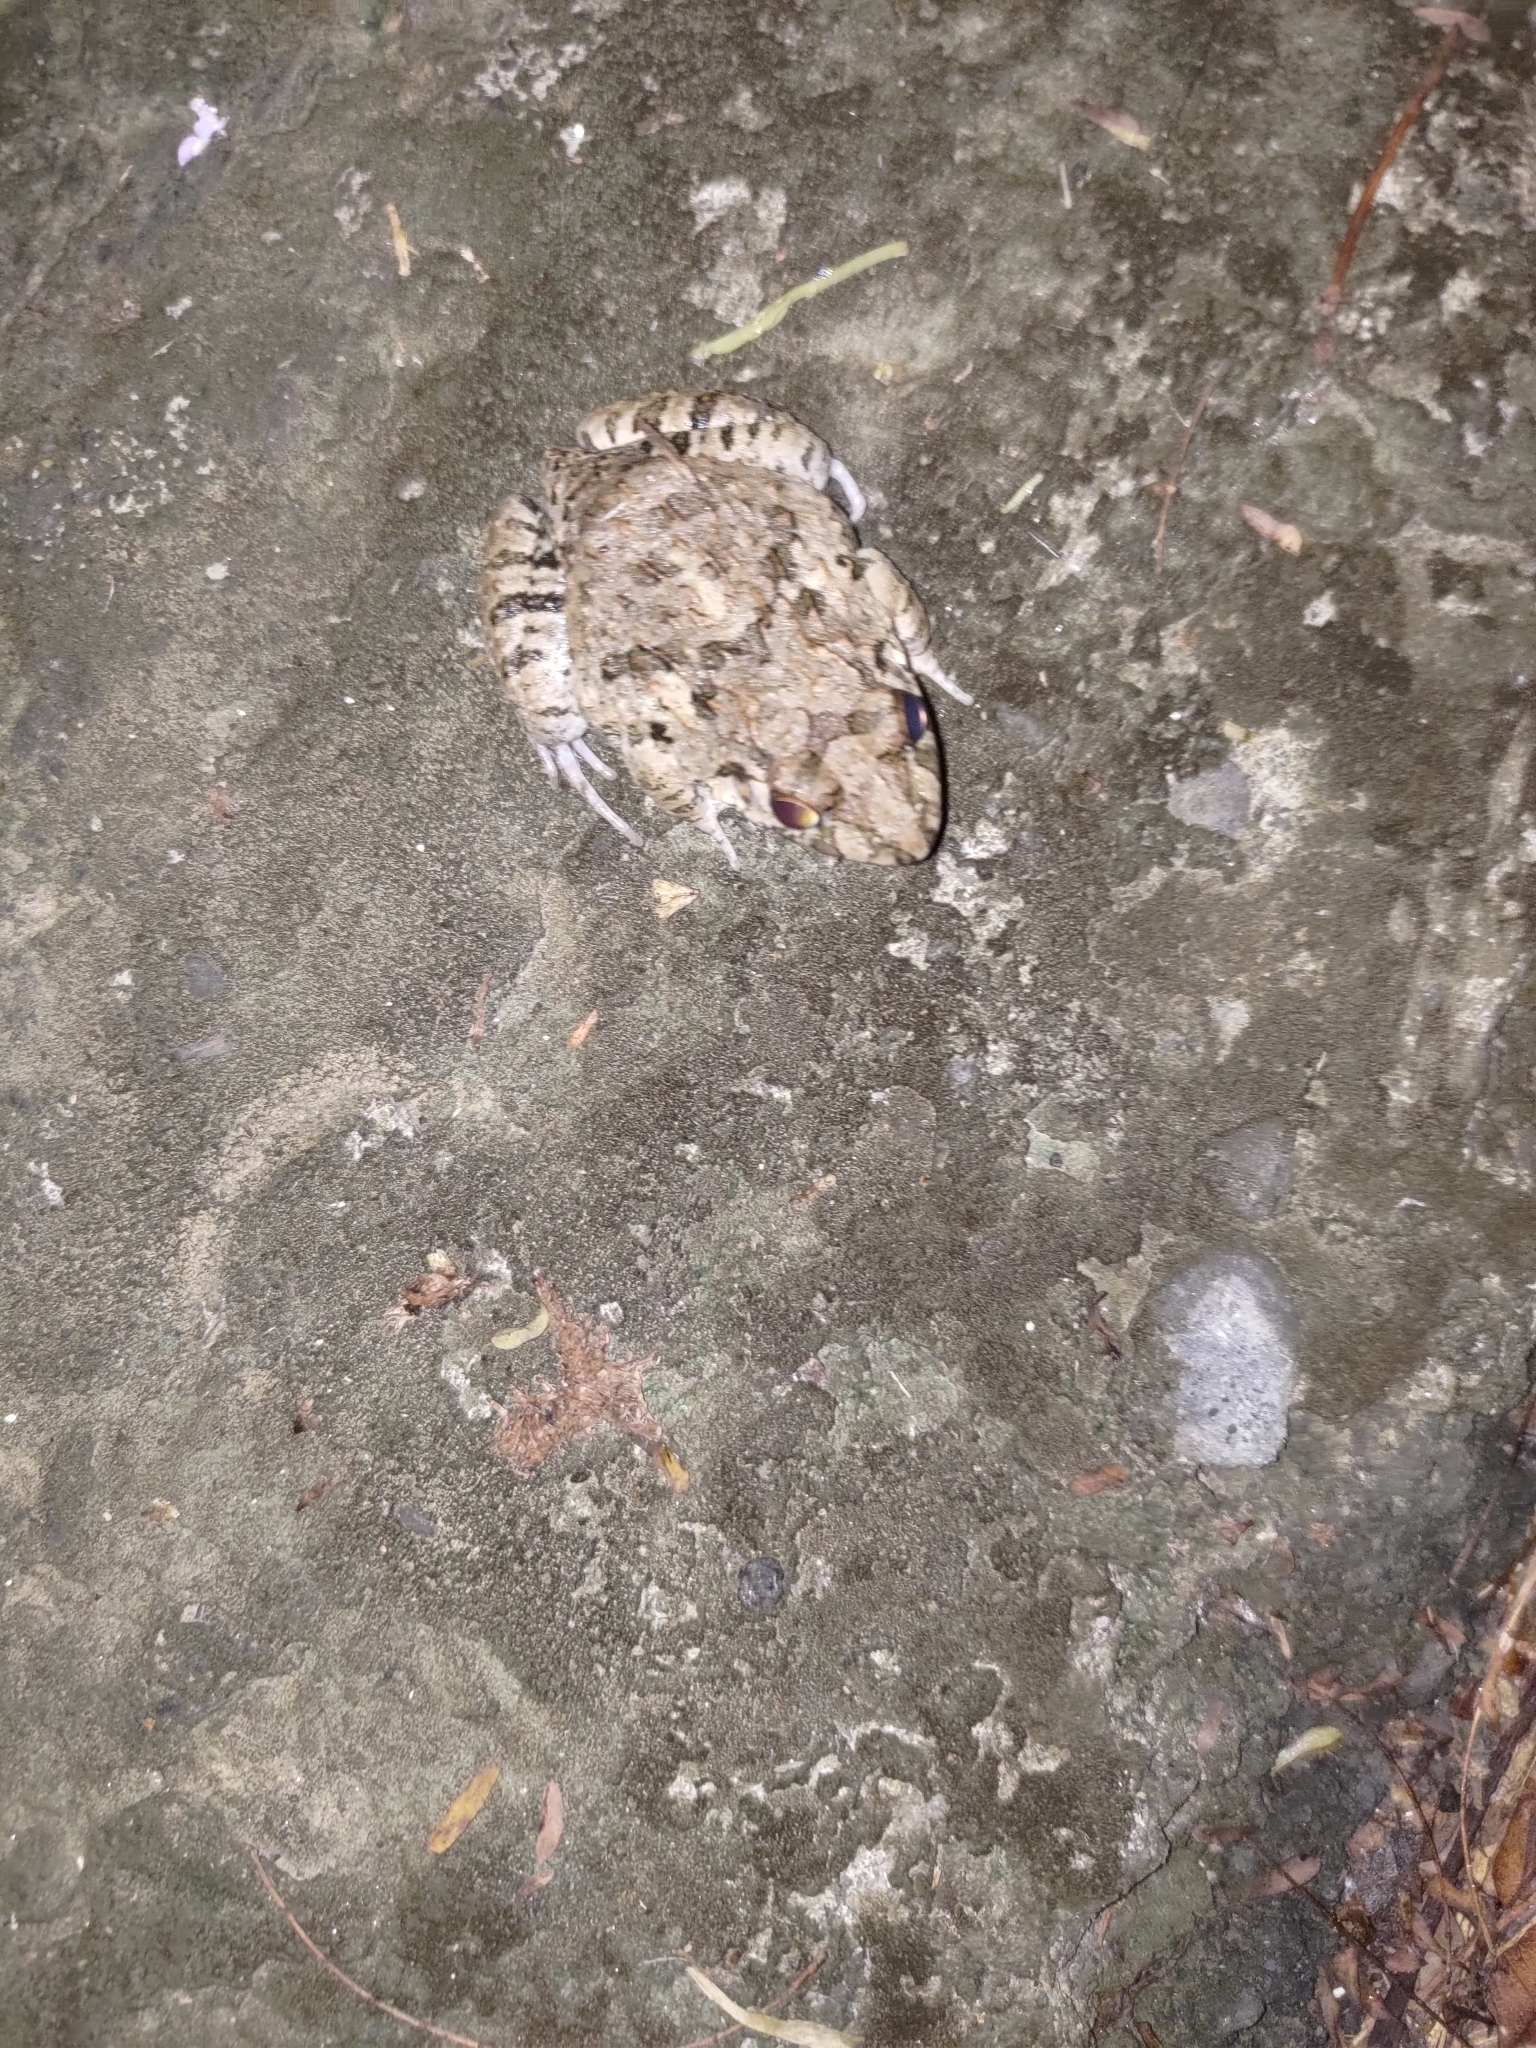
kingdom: Animalia
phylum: Chordata
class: Amphibia
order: Anura
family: Dicroglossidae
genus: Fejervarya
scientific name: Fejervarya limnocharis
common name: Asian grass frog/common pond frog/field frog/grass frog/indian rice frog
